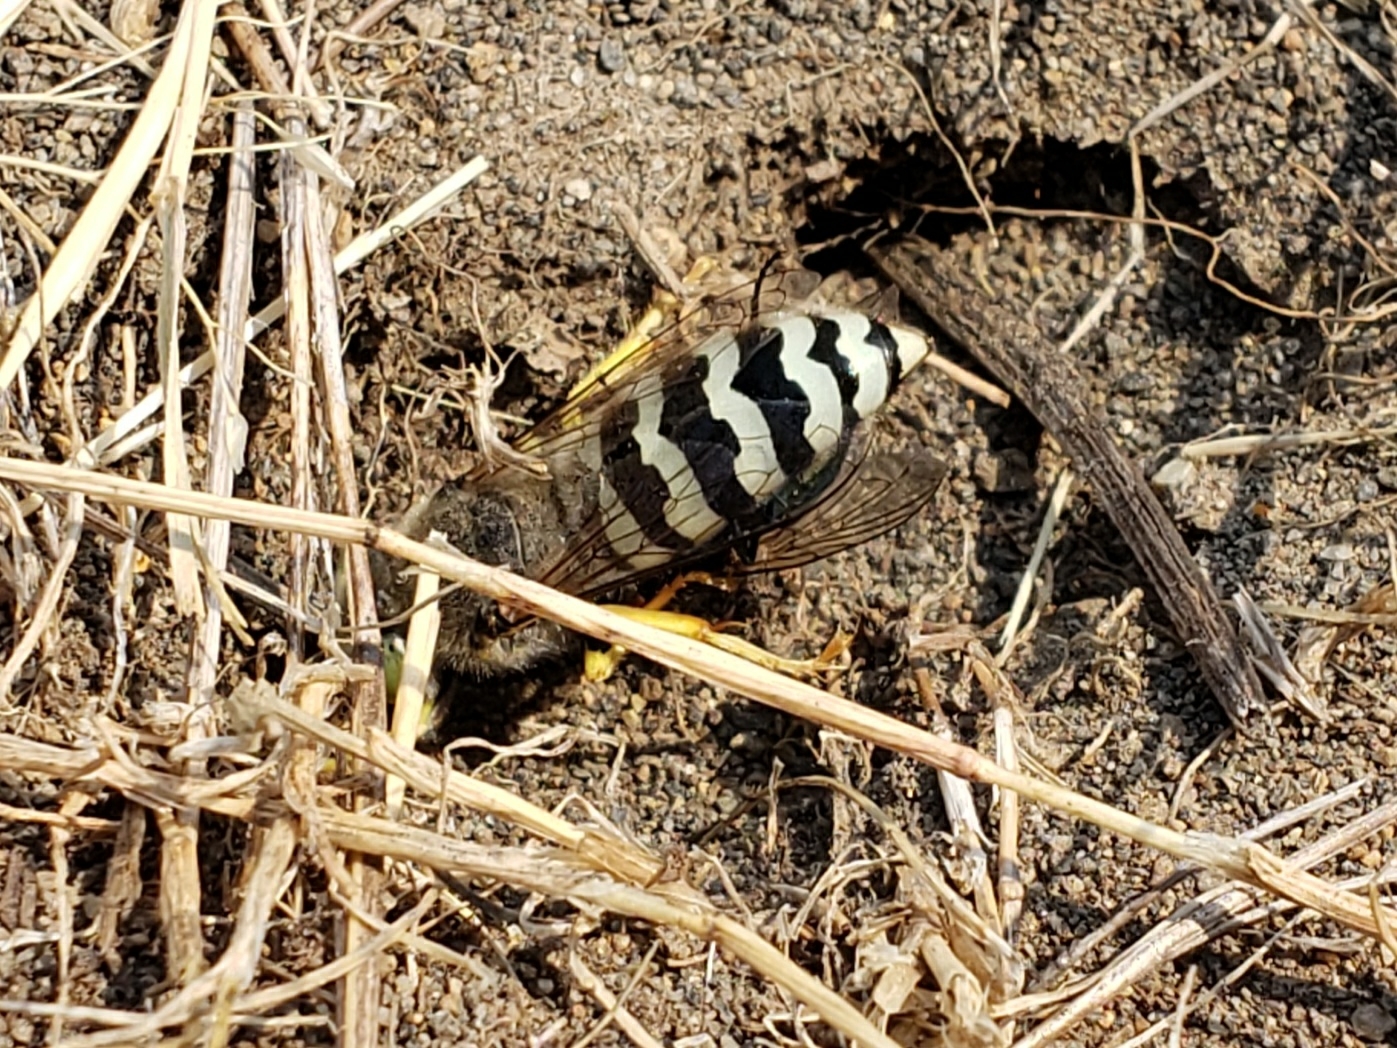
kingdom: Animalia
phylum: Arthropoda
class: Insecta
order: Hymenoptera
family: Crabronidae
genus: Bembix
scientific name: Bembix americana
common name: American sand wasp
